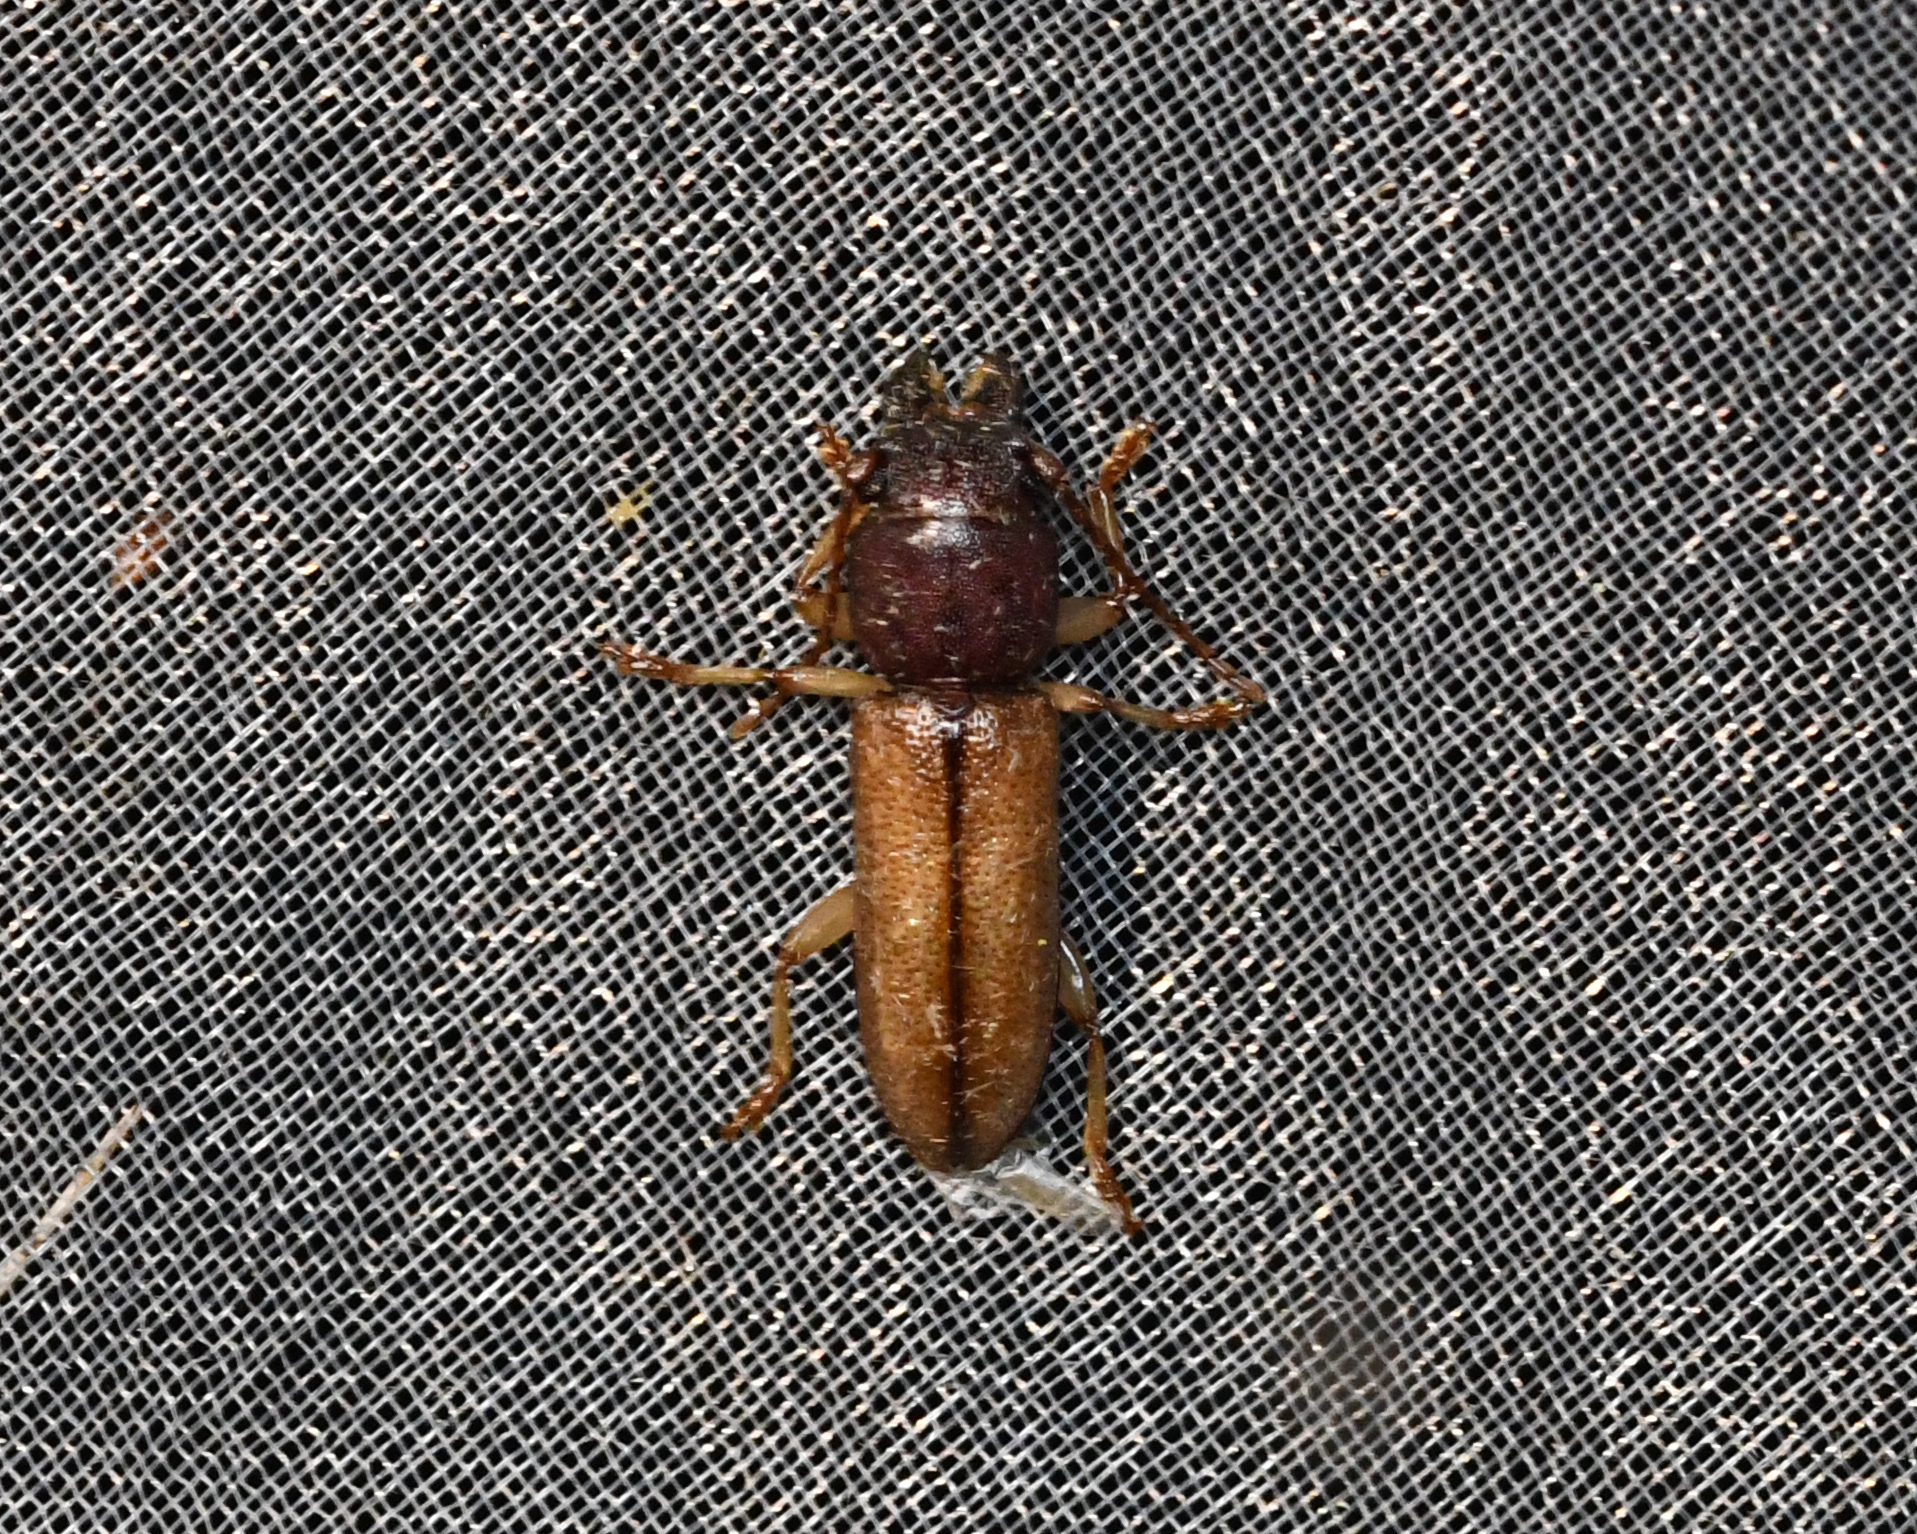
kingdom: Animalia
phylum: Arthropoda
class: Insecta
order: Coleoptera
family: Cerambycidae
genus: Parandraceps
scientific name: Parandraceps turnbowi
